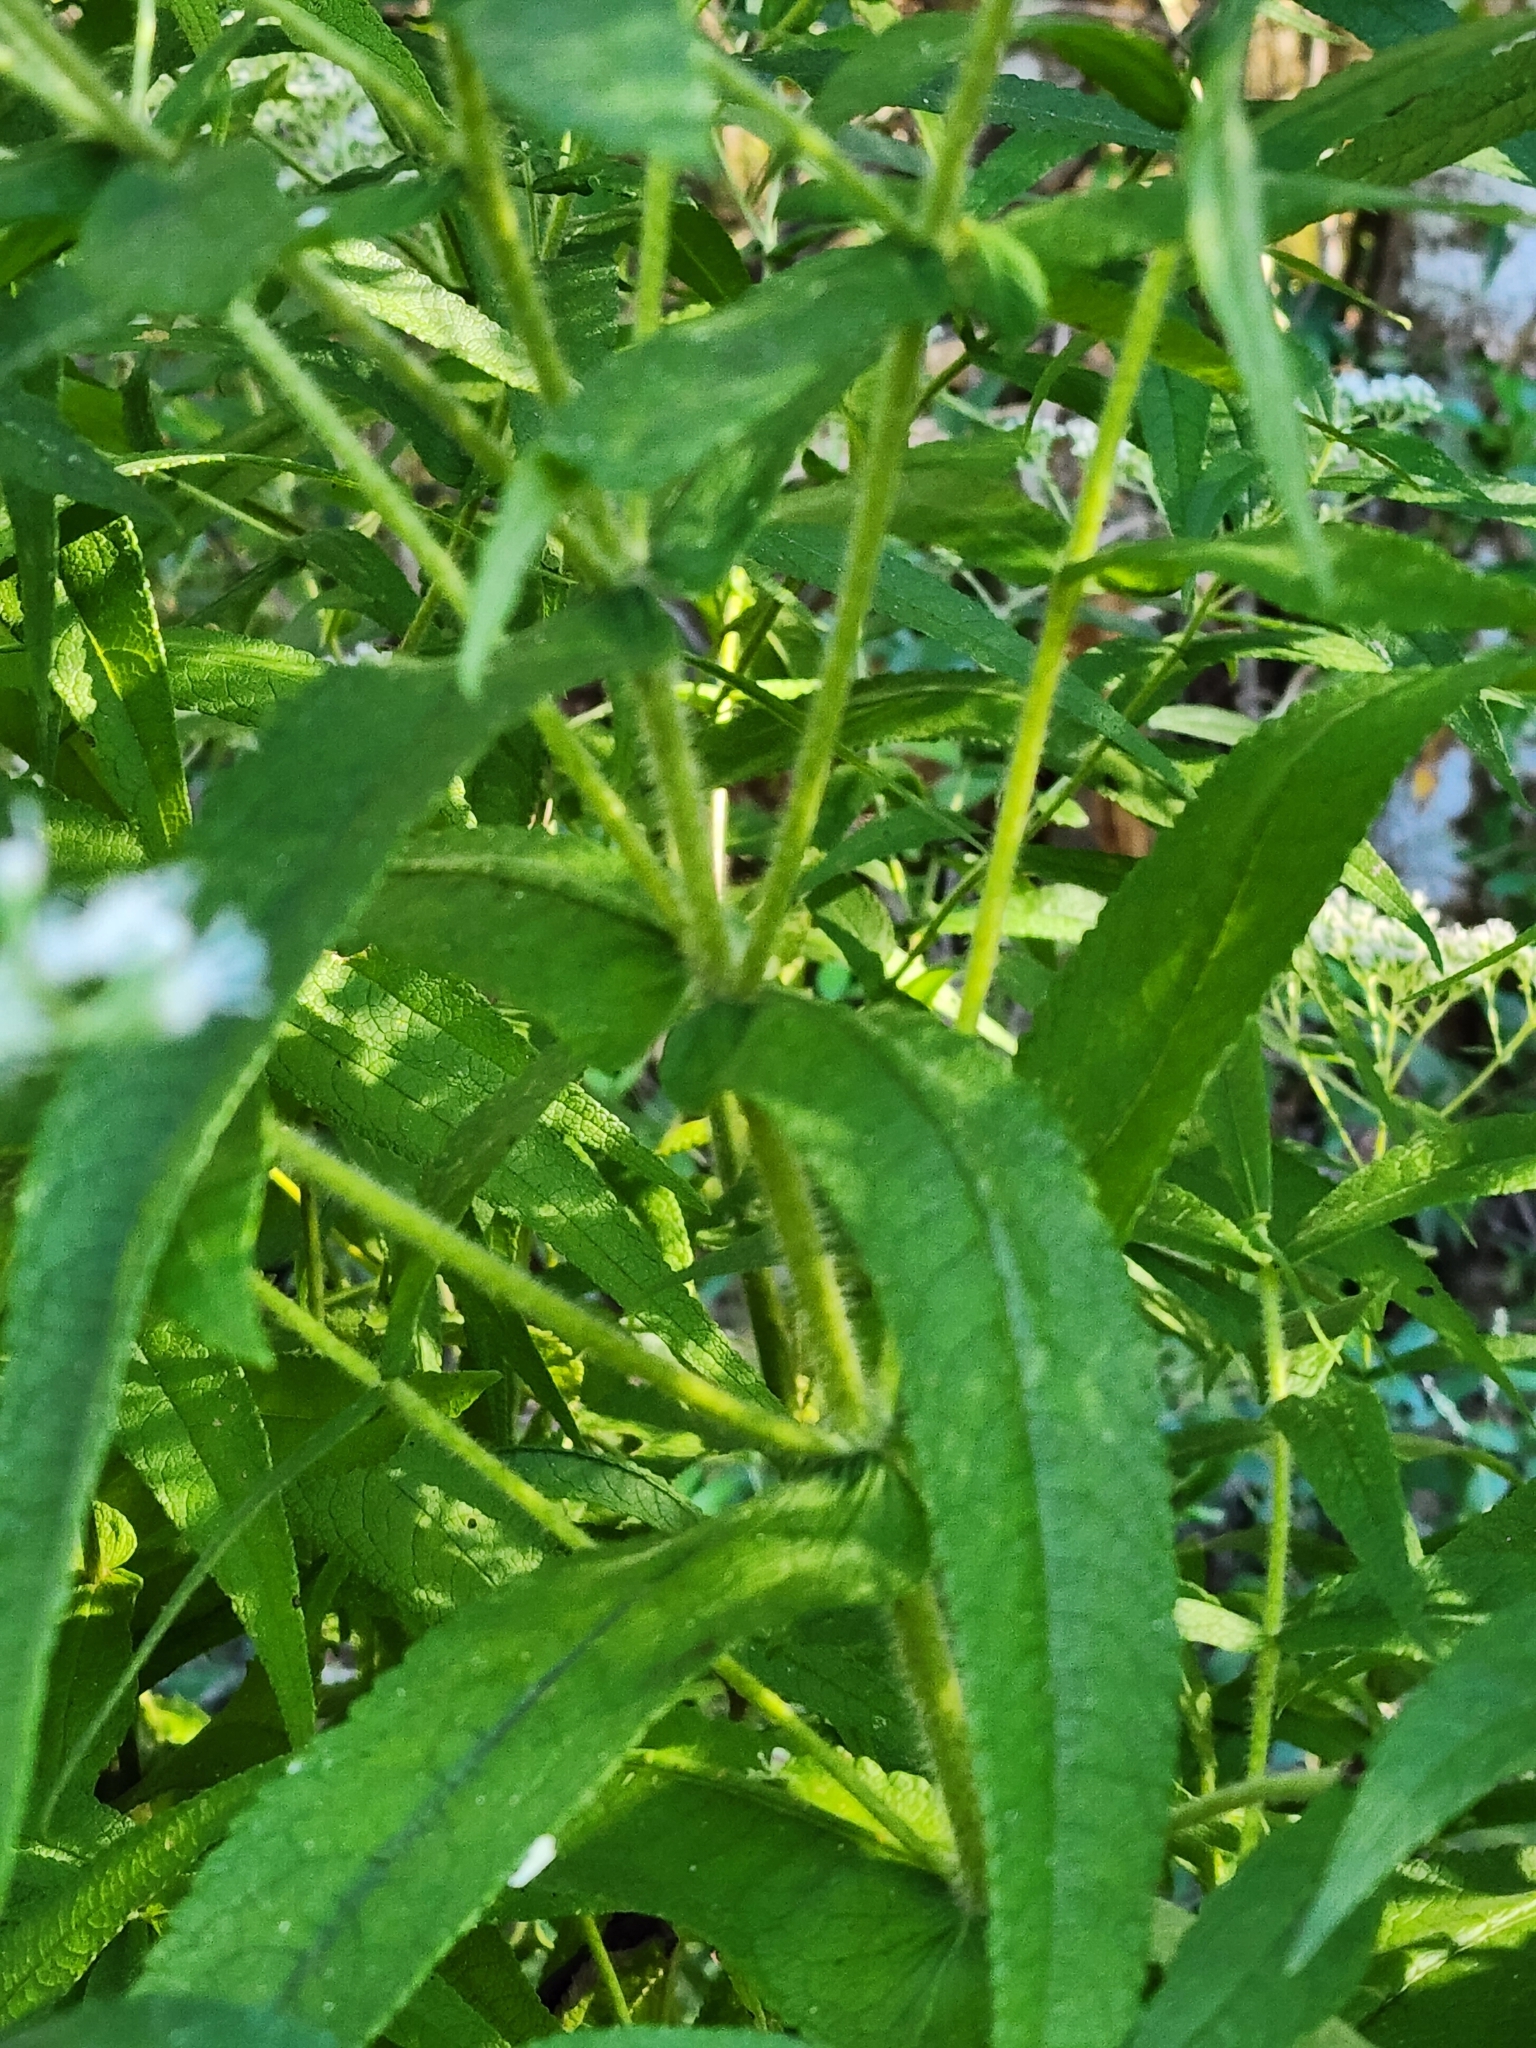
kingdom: Plantae
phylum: Tracheophyta
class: Magnoliopsida
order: Asterales
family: Asteraceae
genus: Eupatorium
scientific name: Eupatorium perfoliatum
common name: Boneset
